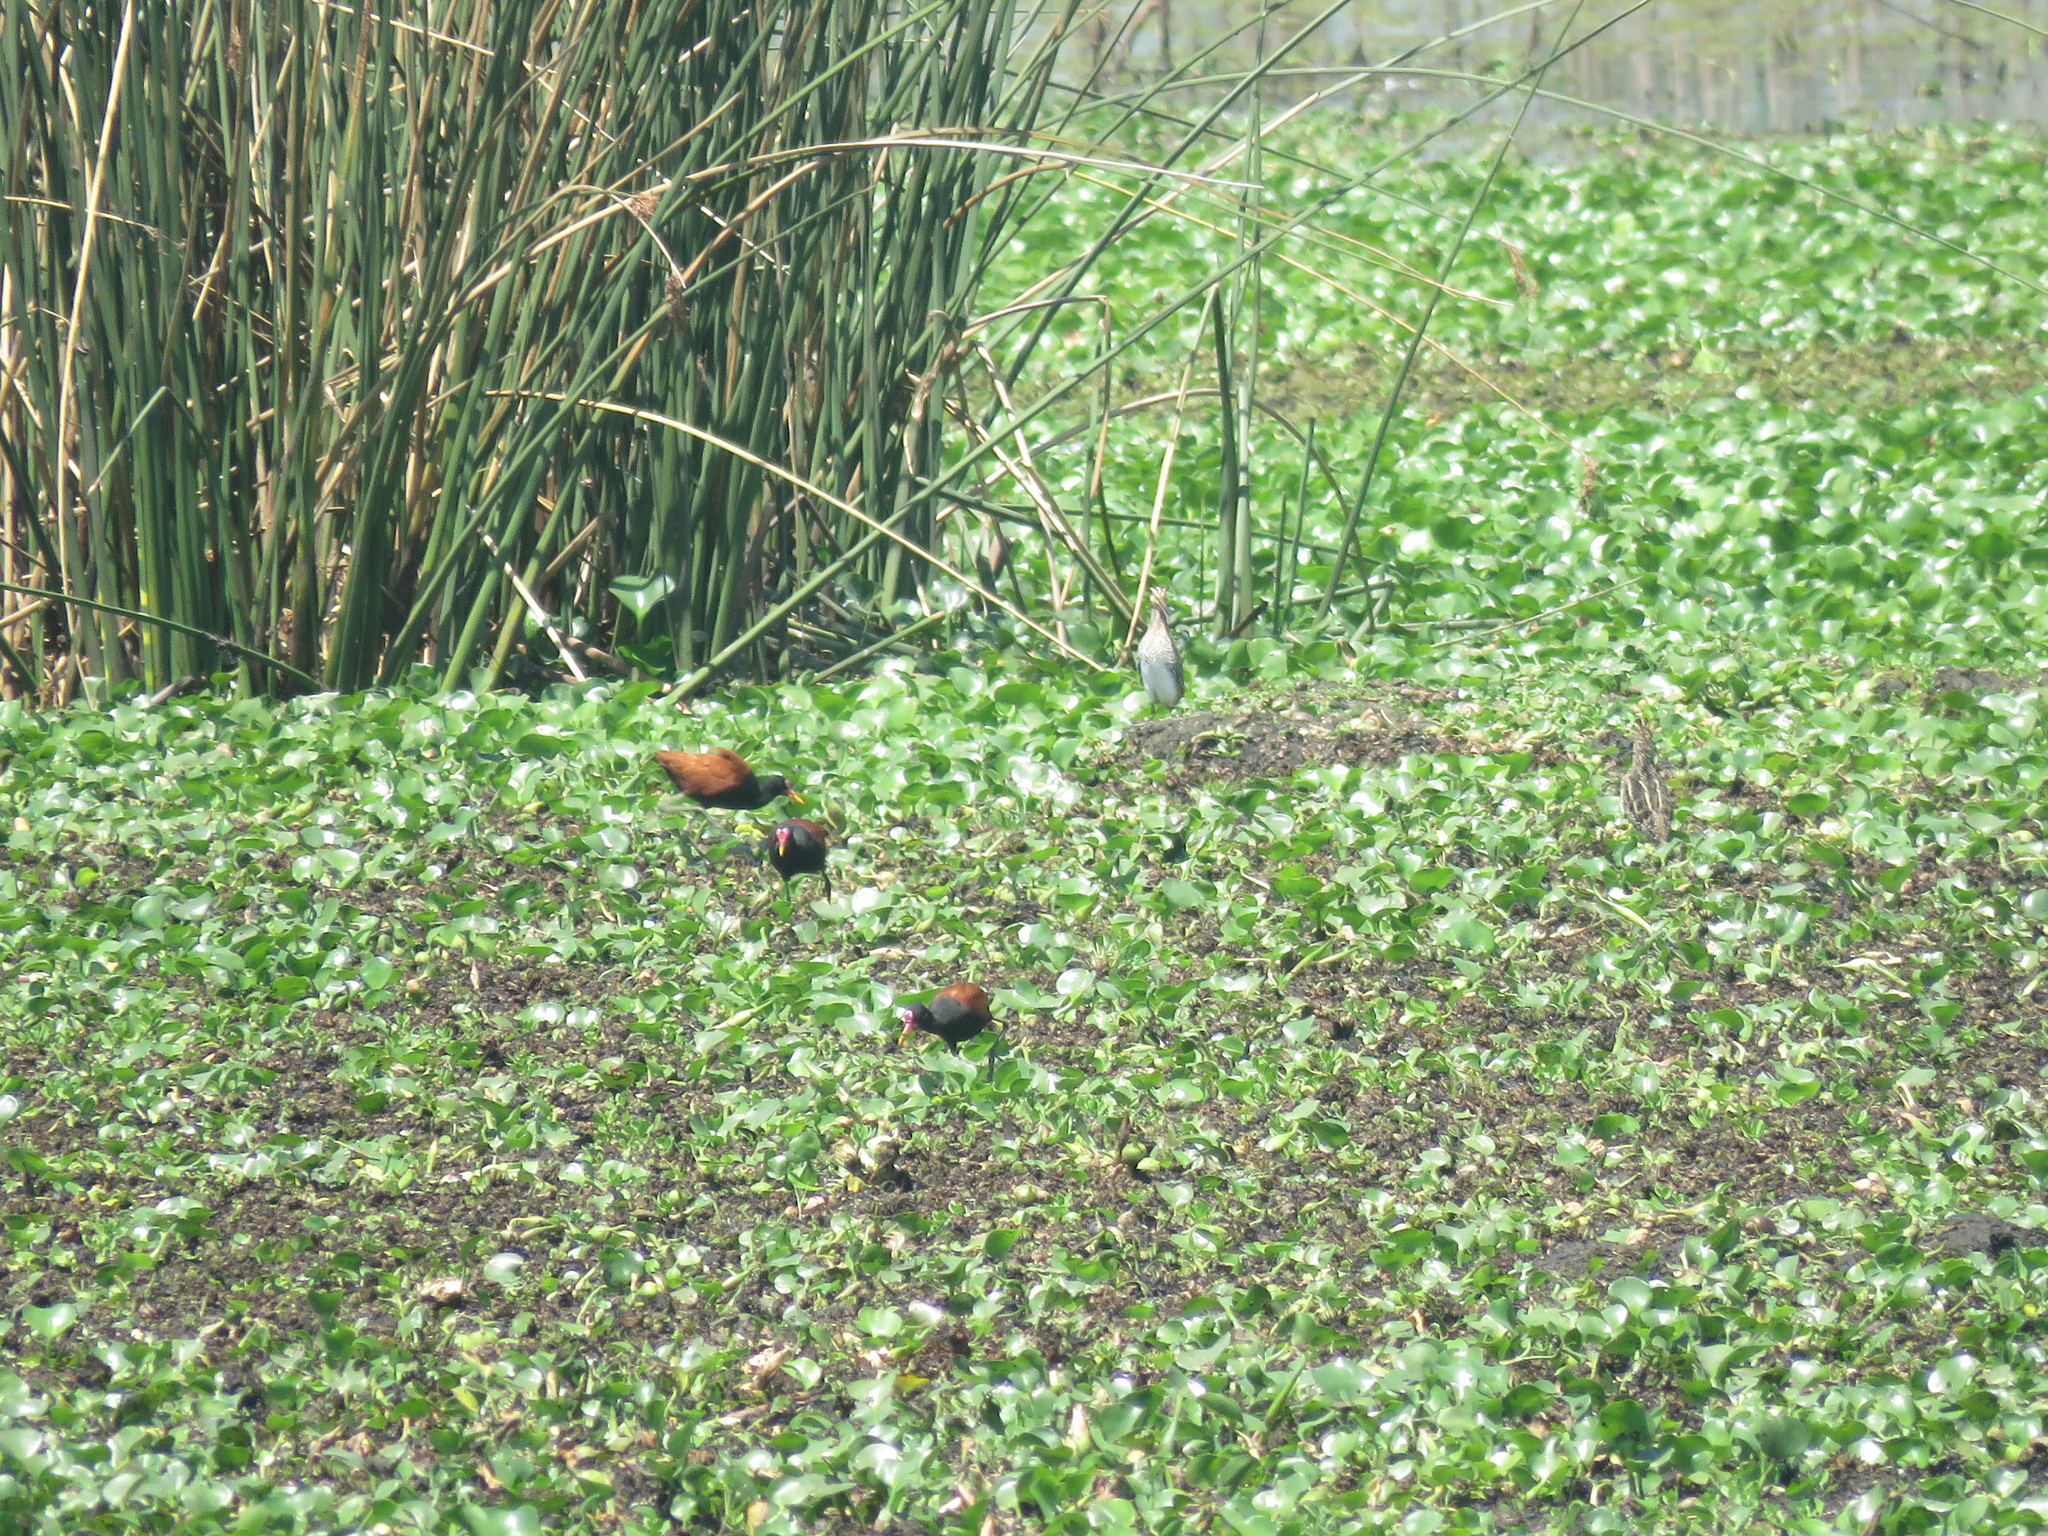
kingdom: Animalia
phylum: Chordata
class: Aves
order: Charadriiformes
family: Jacanidae
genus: Jacana
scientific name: Jacana jacana
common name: Wattled jacana
